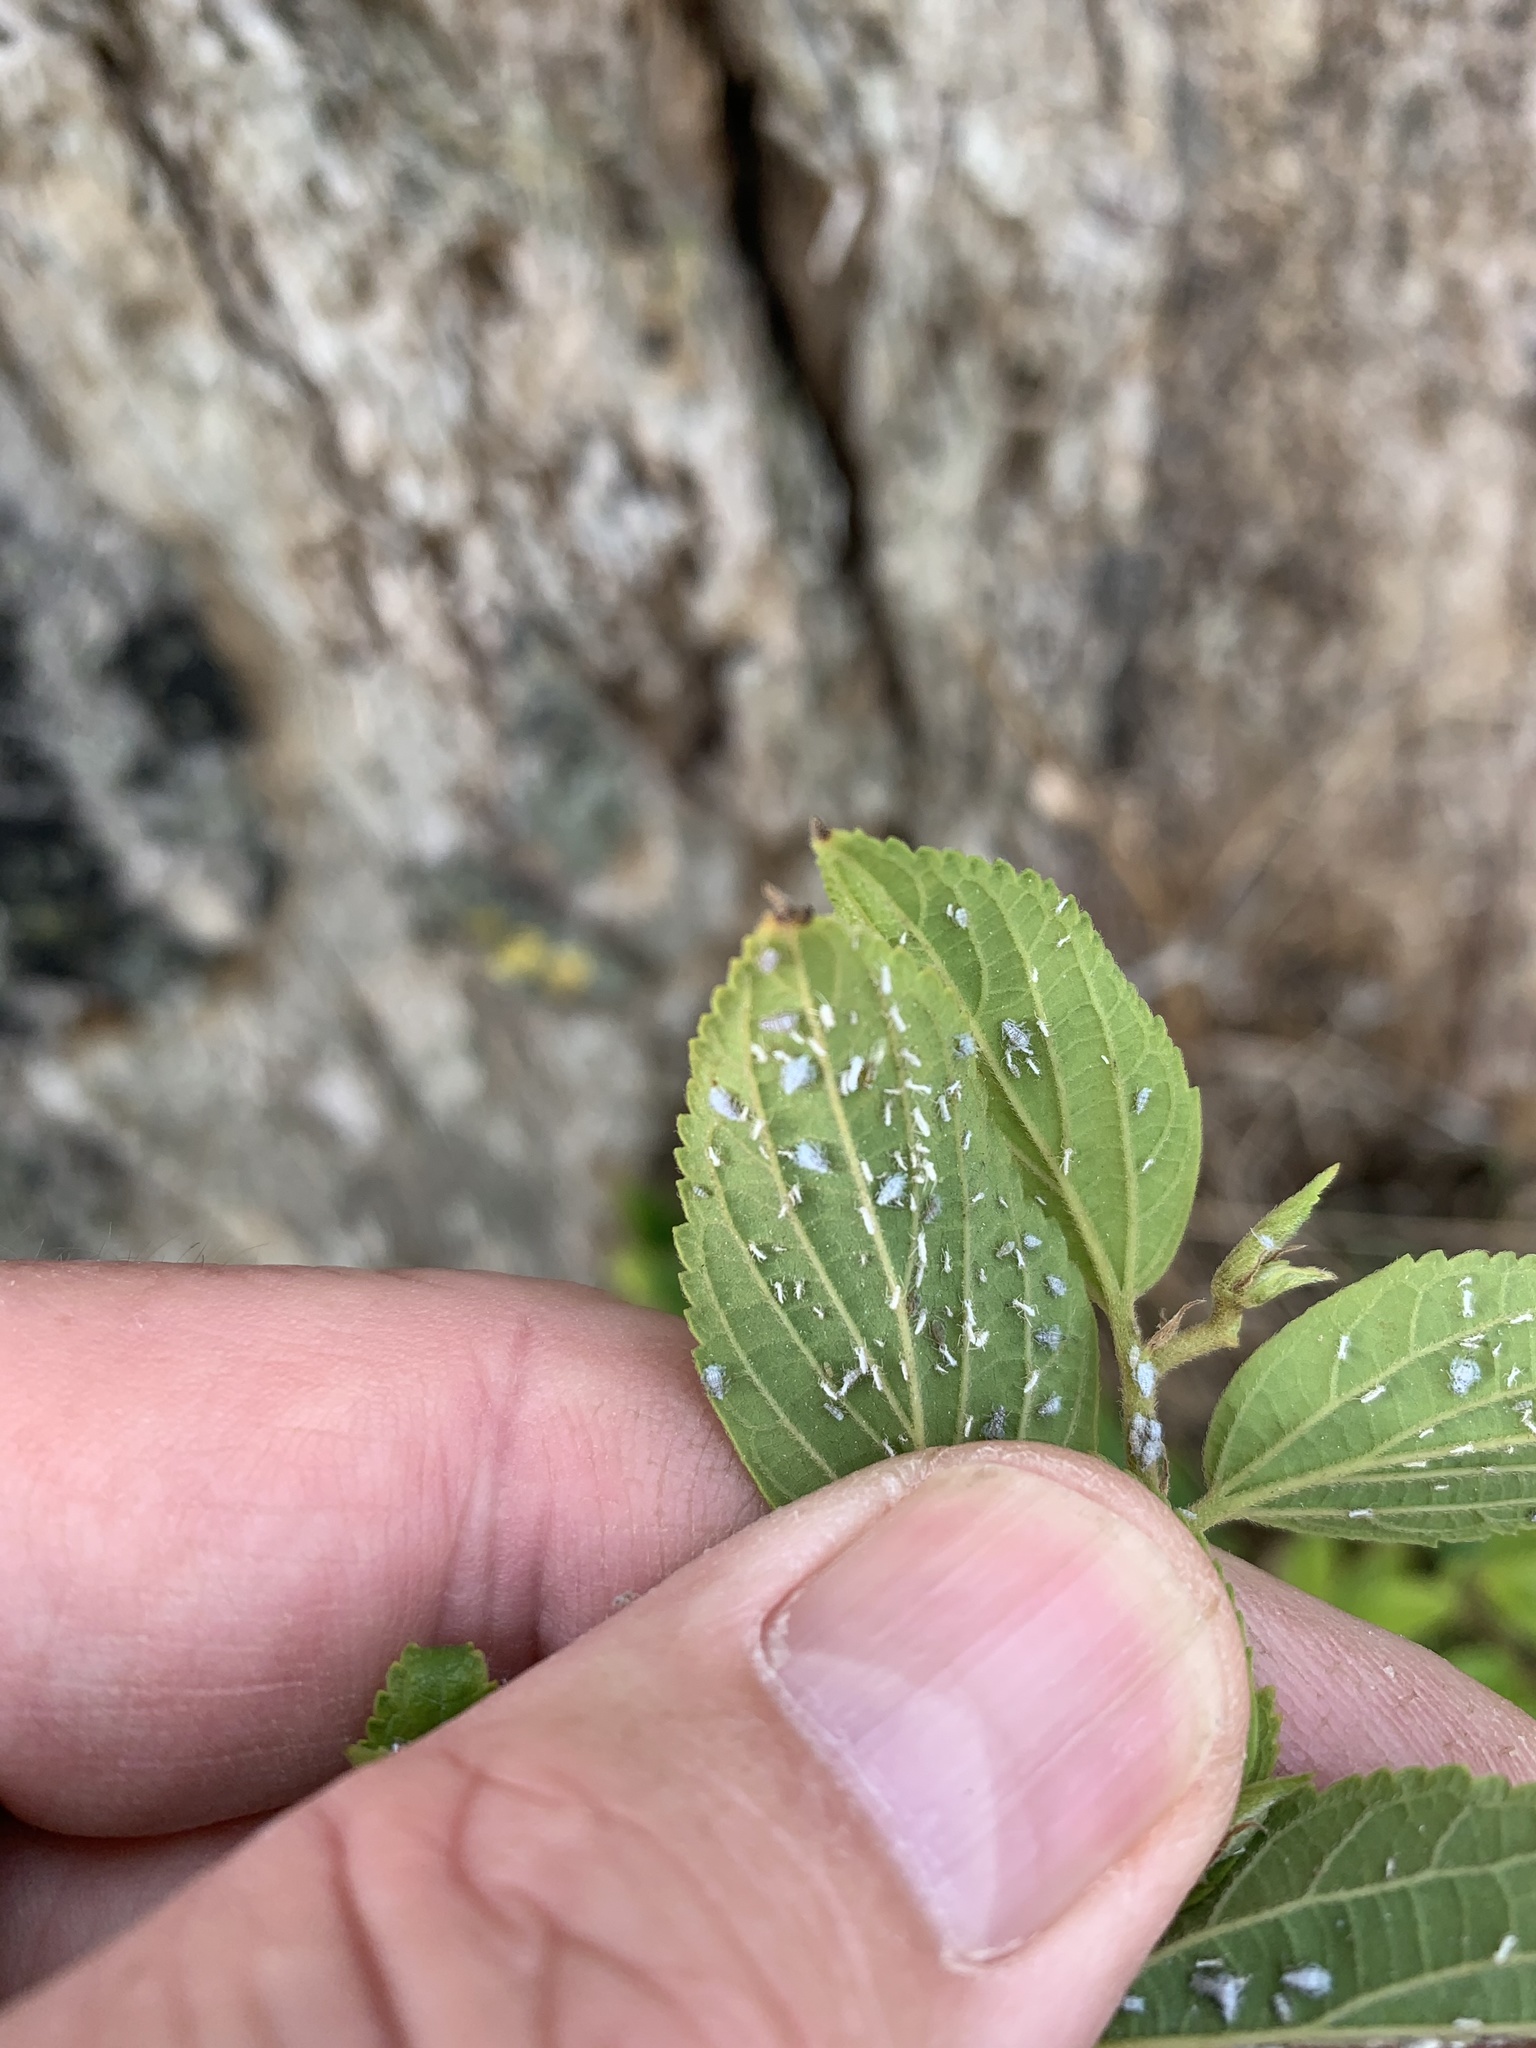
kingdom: Plantae
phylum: Tracheophyta
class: Magnoliopsida
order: Rosales
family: Cannabaceae
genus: Celtis
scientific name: Celtis sinensis
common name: Chinese hackberry
